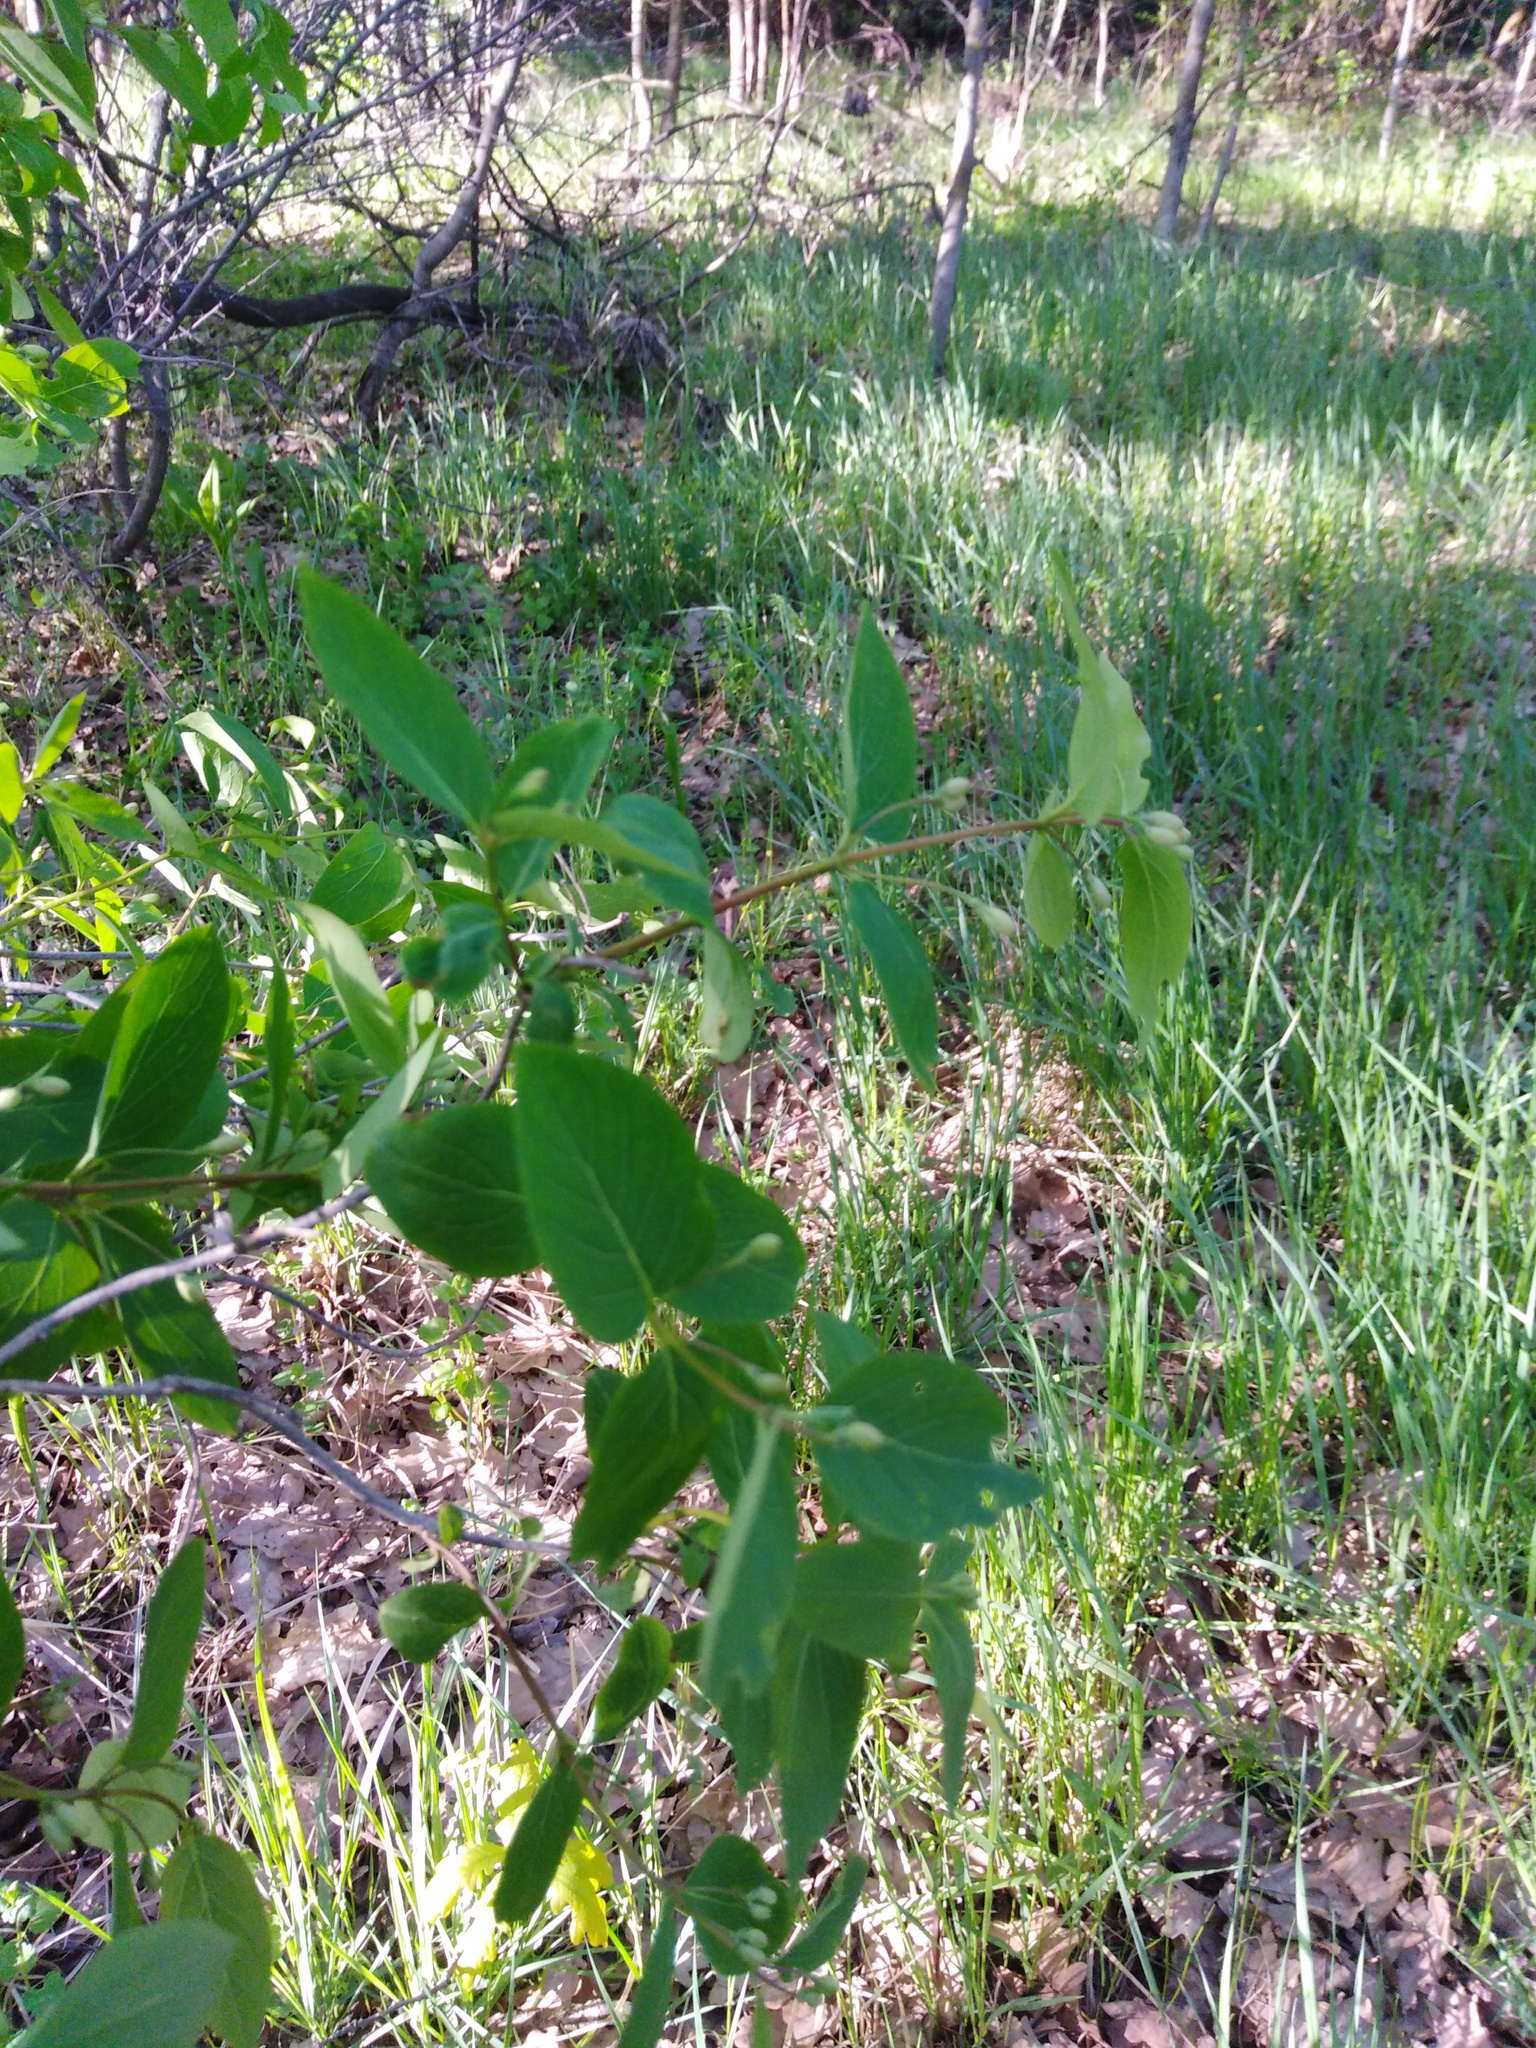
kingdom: Plantae
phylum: Tracheophyta
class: Magnoliopsida
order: Dipsacales
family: Caprifoliaceae
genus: Lonicera
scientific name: Lonicera tatarica
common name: Tatarian honeysuckle
